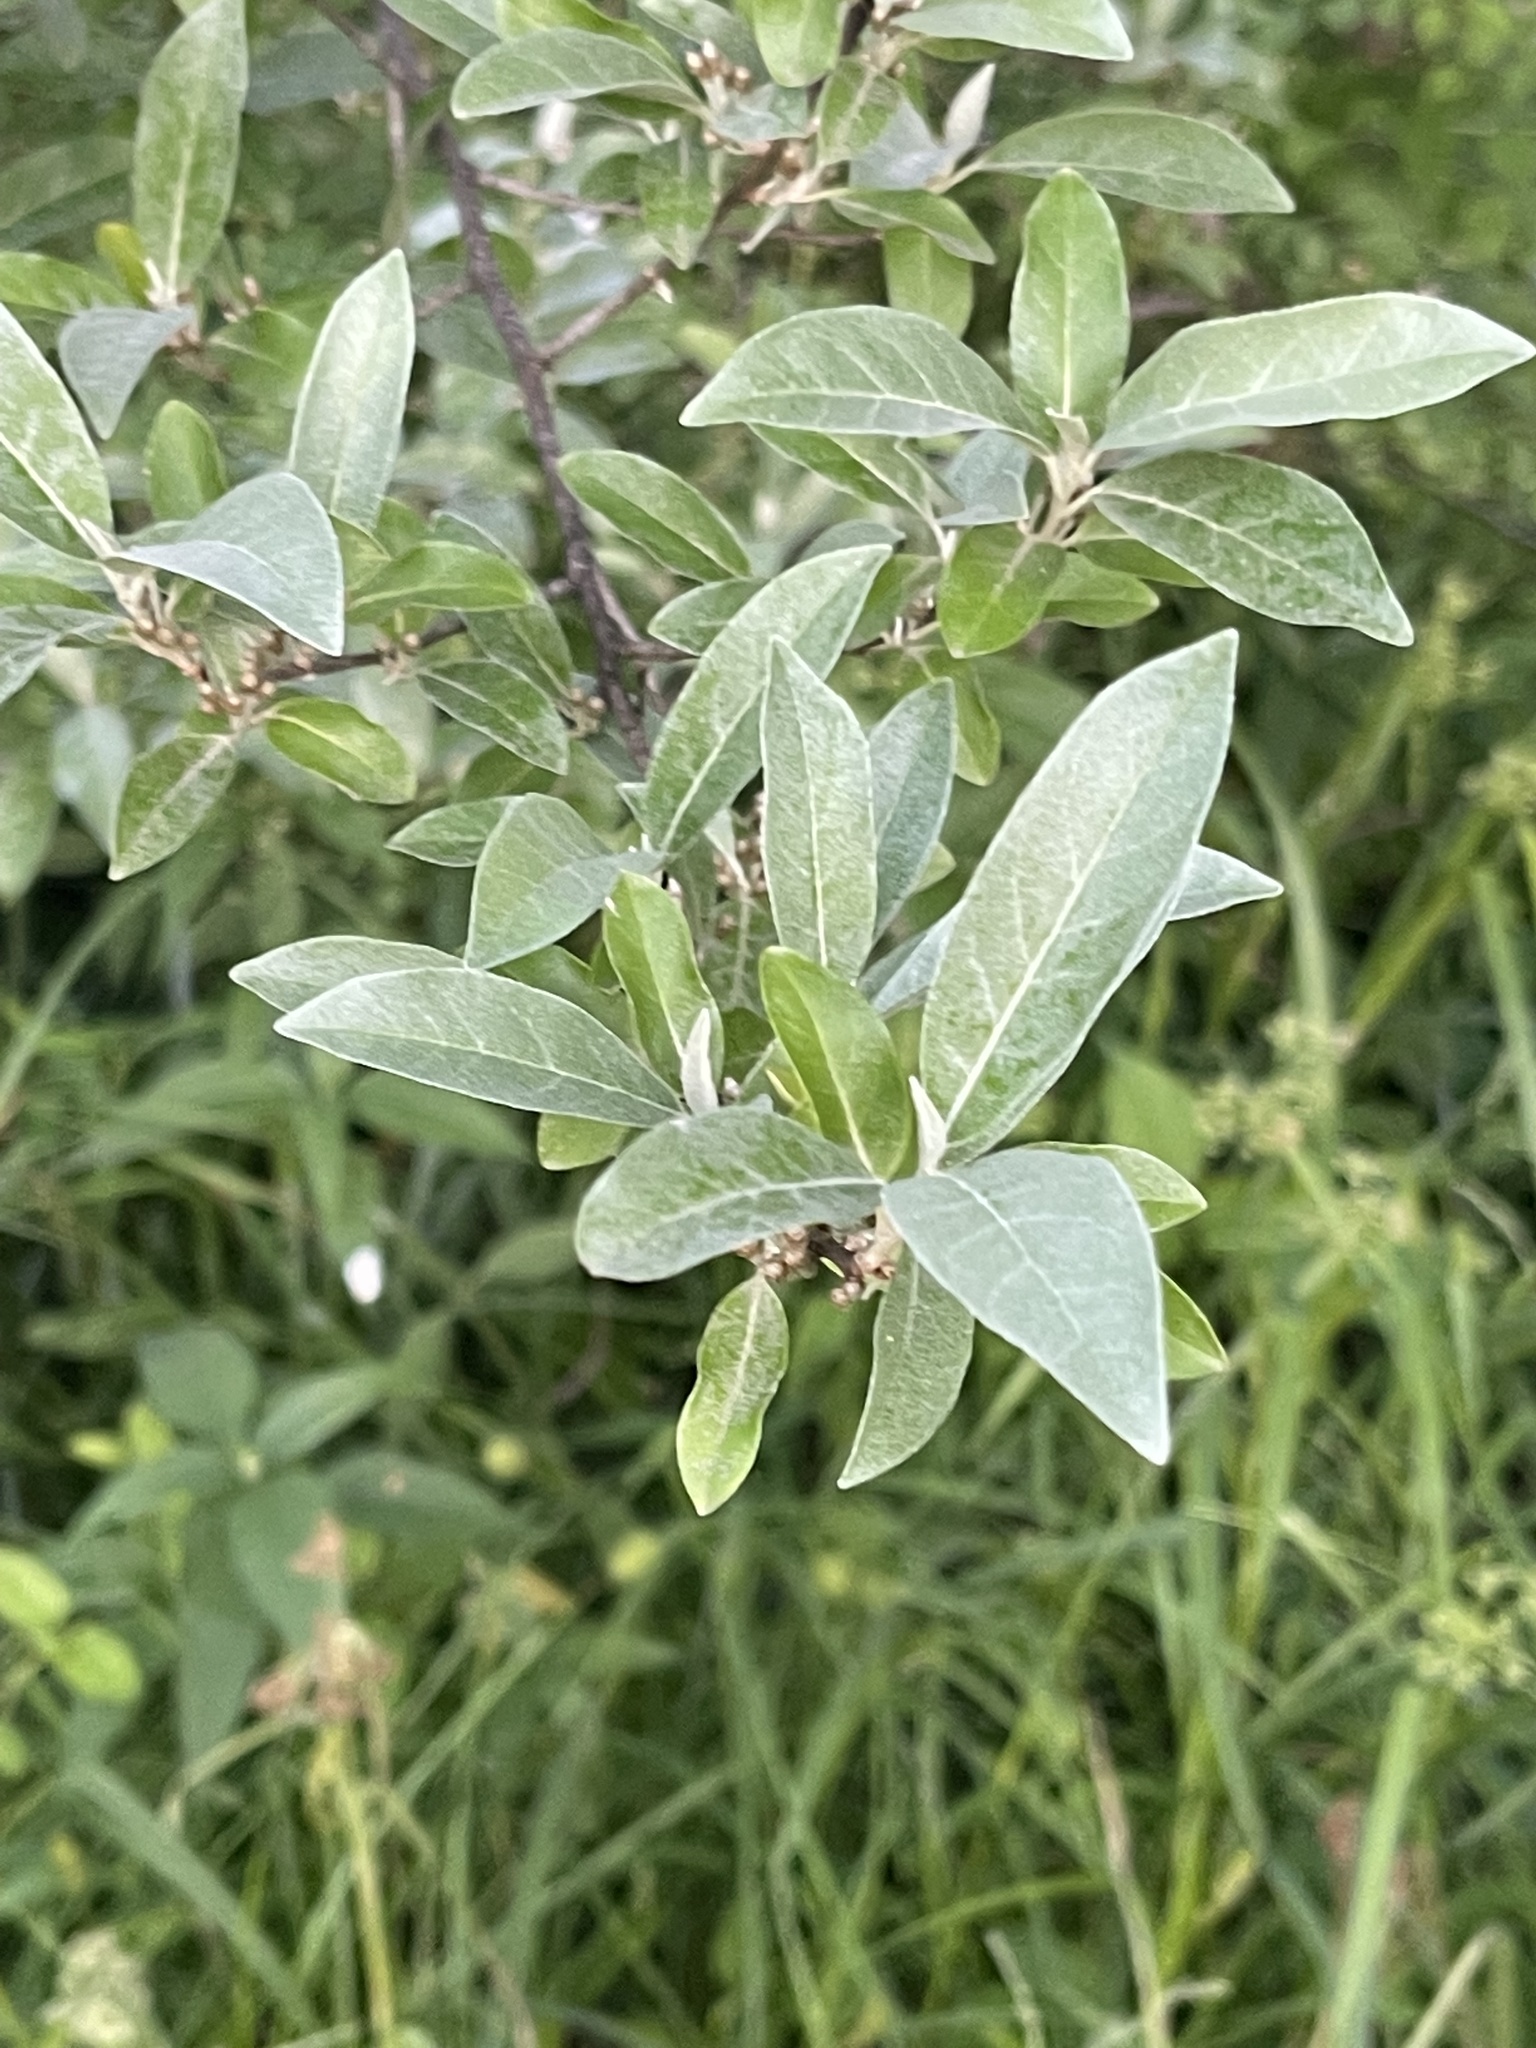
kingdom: Plantae
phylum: Tracheophyta
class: Magnoliopsida
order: Rosales
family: Elaeagnaceae
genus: Elaeagnus
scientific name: Elaeagnus umbellata
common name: Autumn olive
